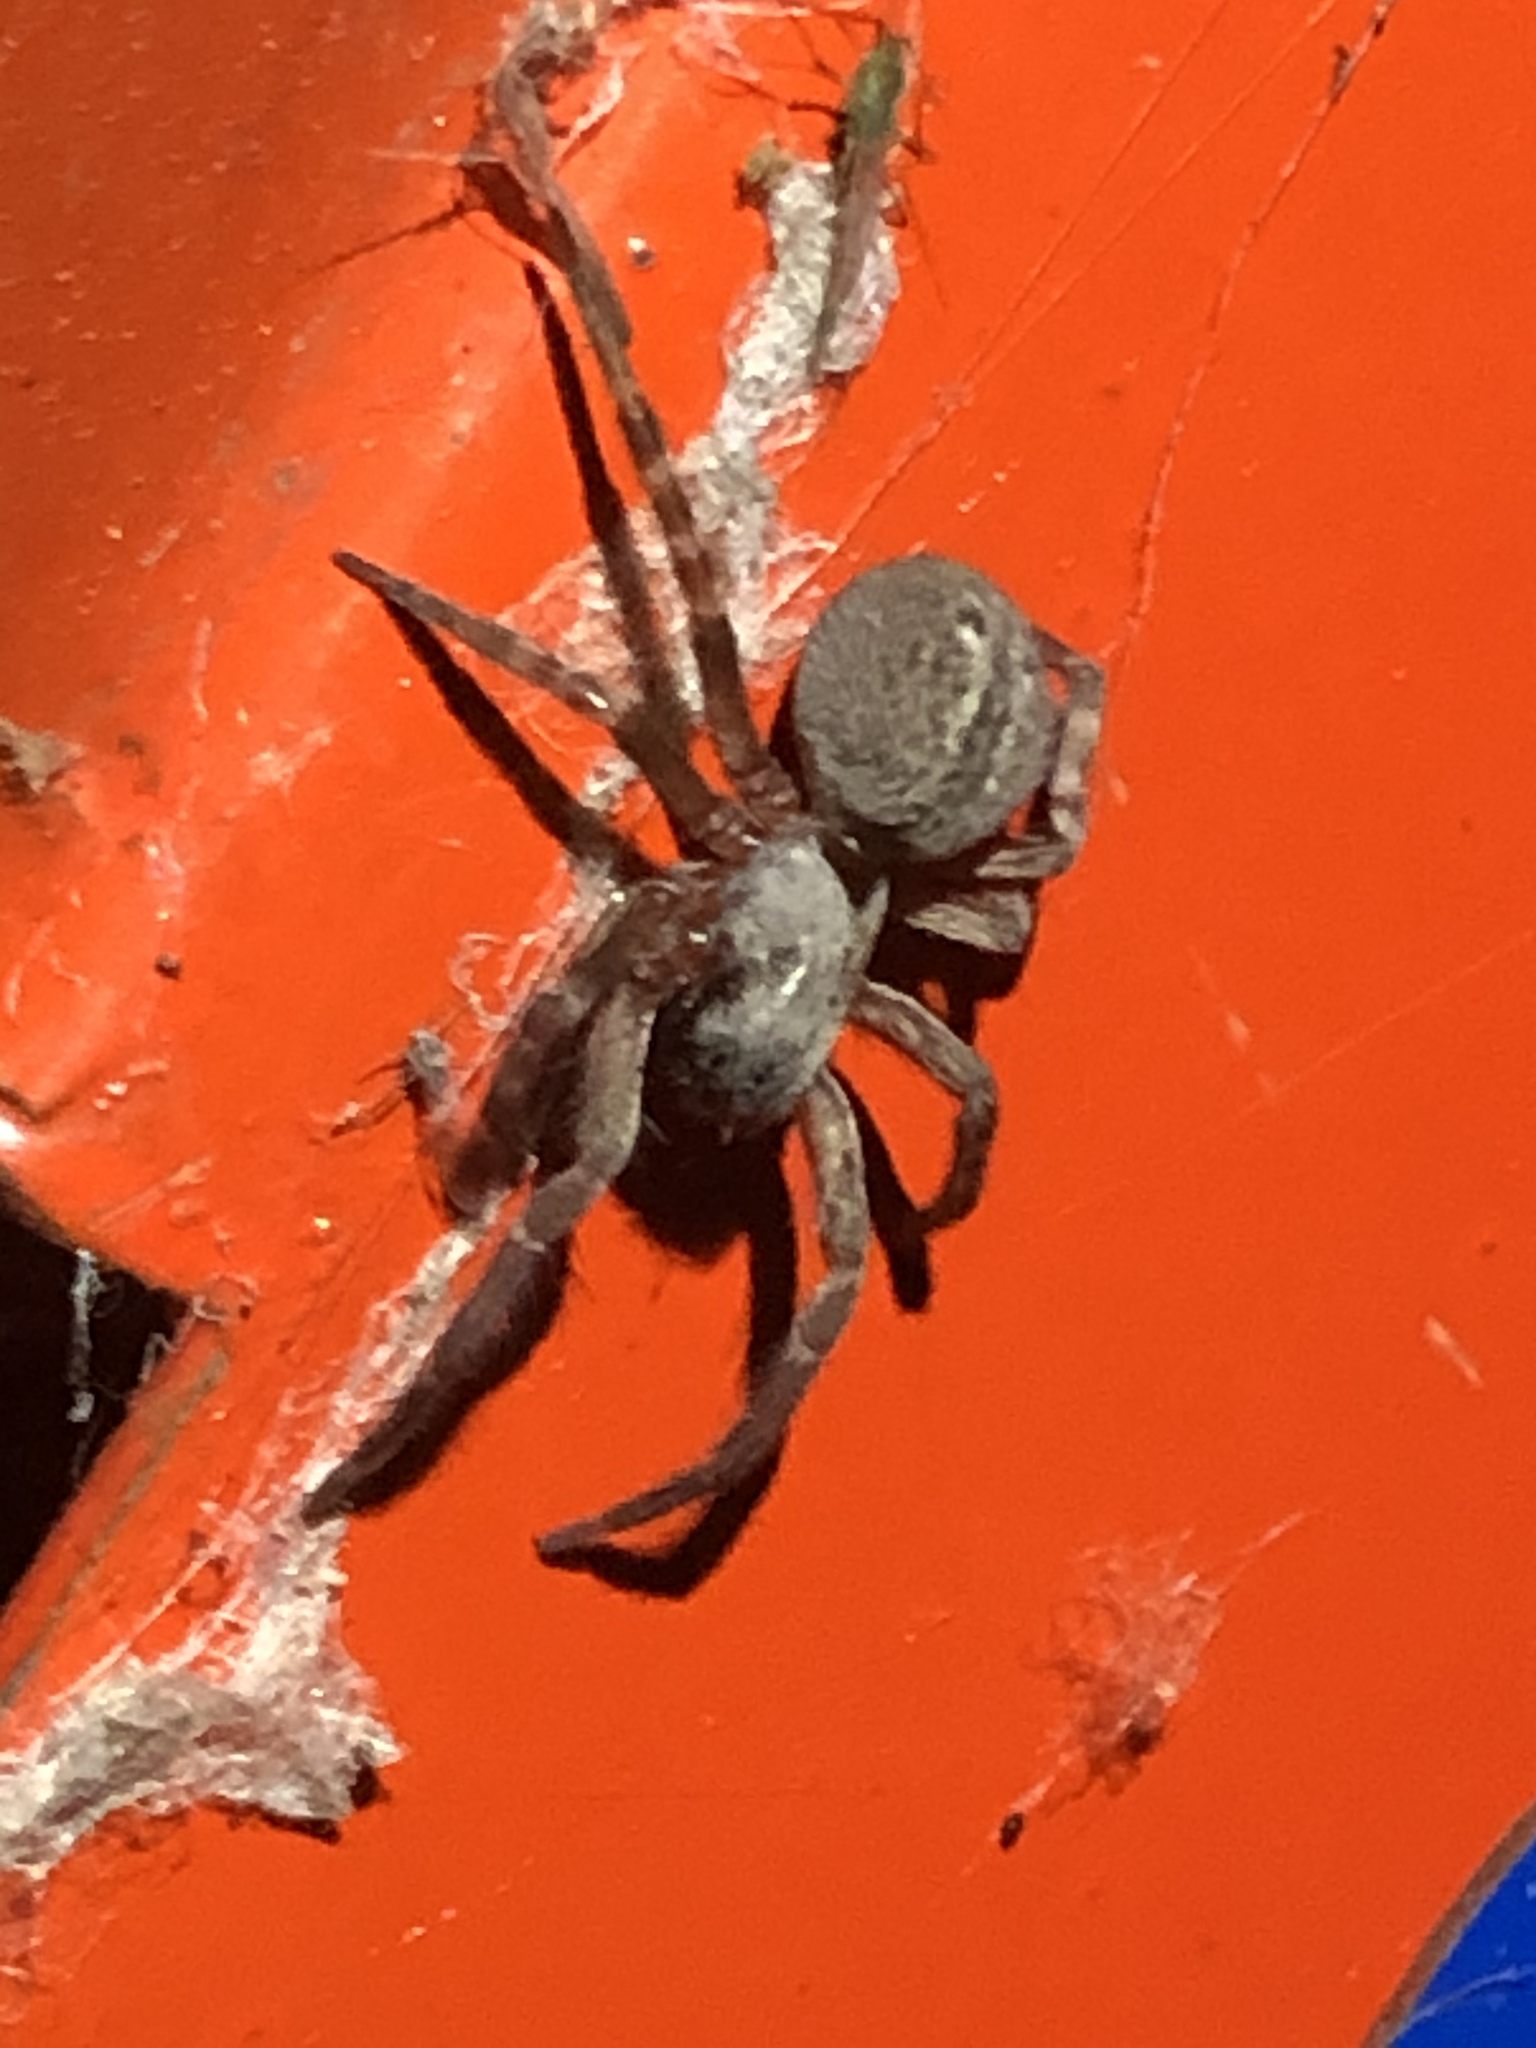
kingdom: Animalia
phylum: Arthropoda
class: Arachnida
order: Araneae
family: Desidae
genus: Badumna
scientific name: Badumna longinqua
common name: Gray house spider
